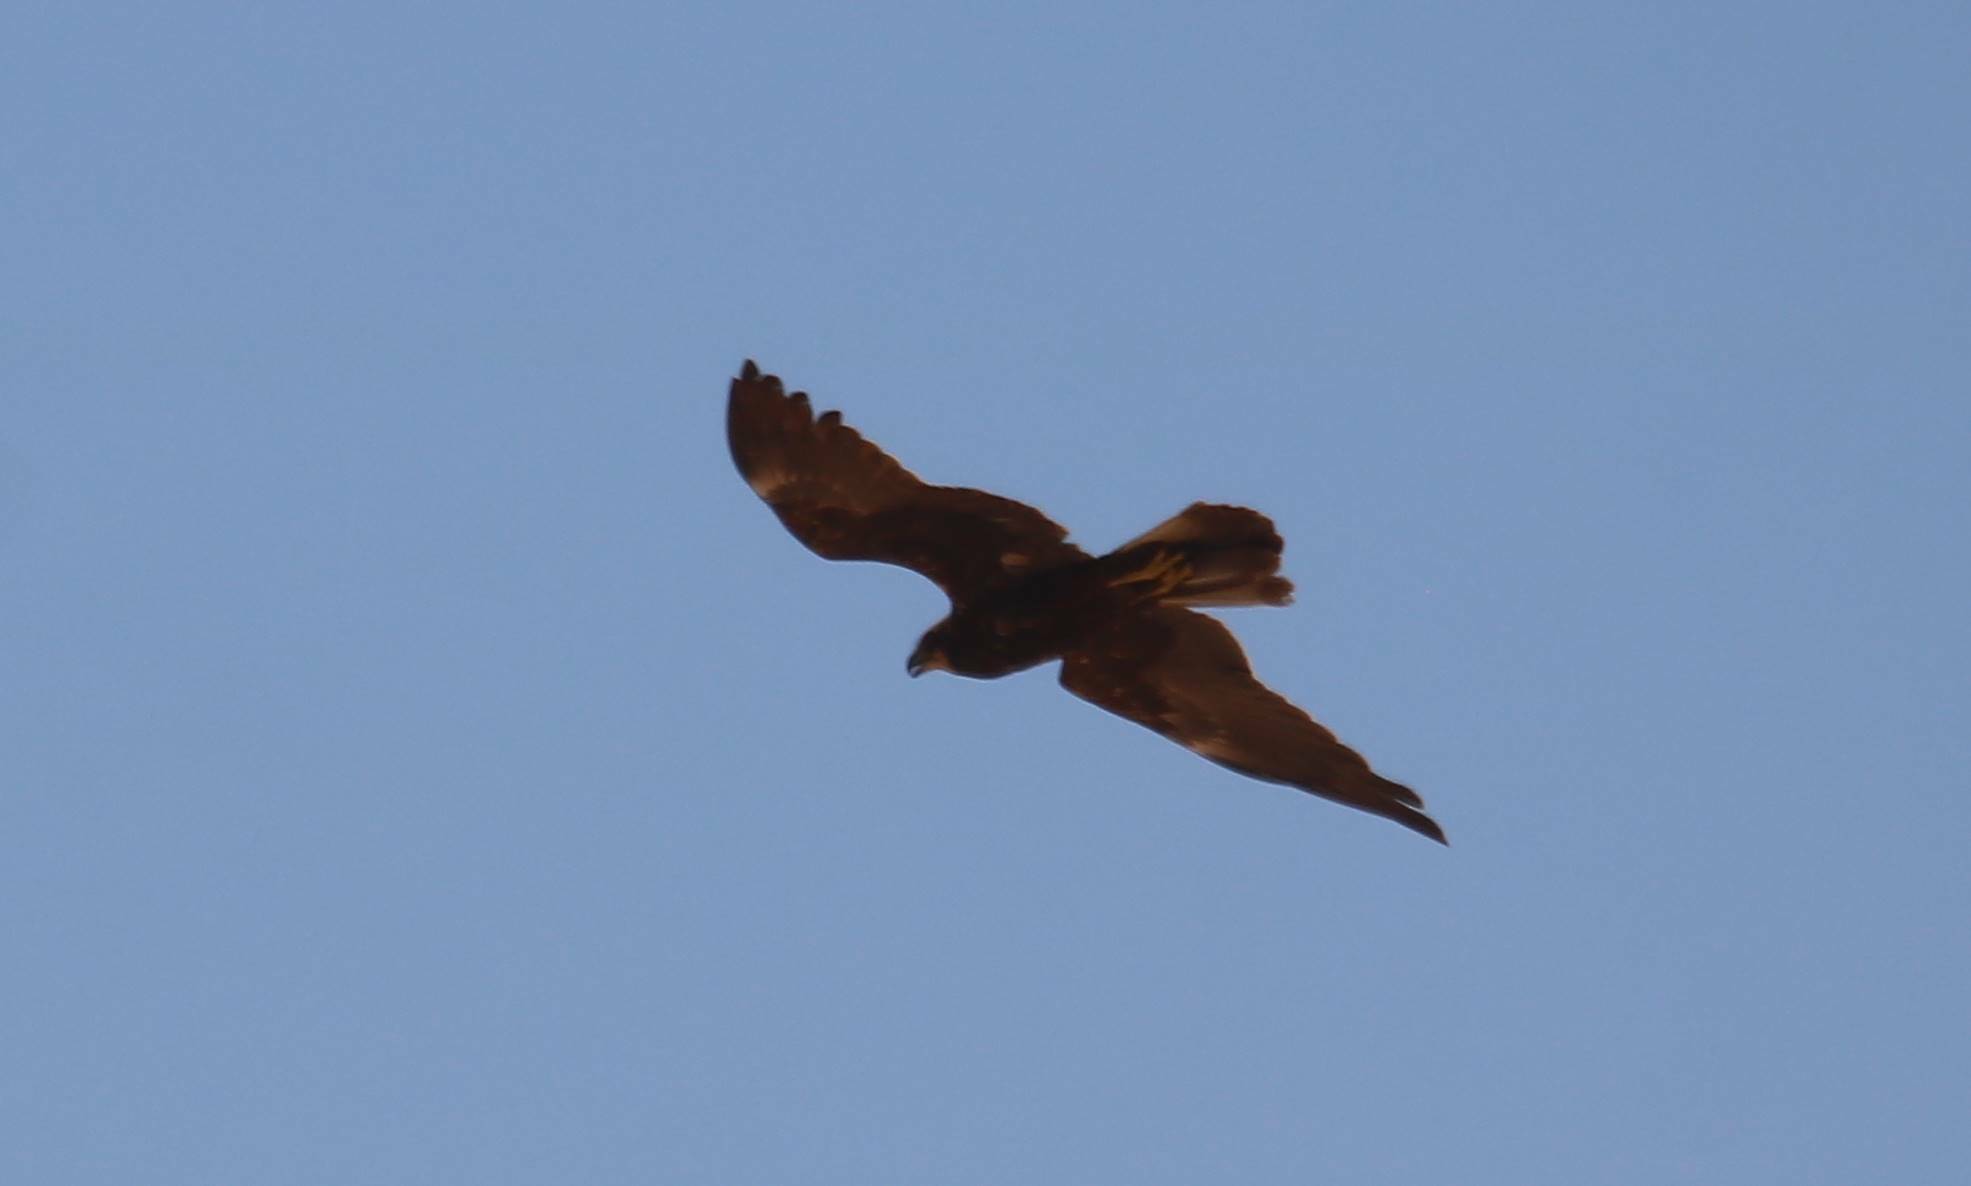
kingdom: Animalia
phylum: Chordata
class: Aves
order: Accipitriformes
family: Accipitridae
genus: Circus
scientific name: Circus aeruginosus
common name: Western marsh harrier
